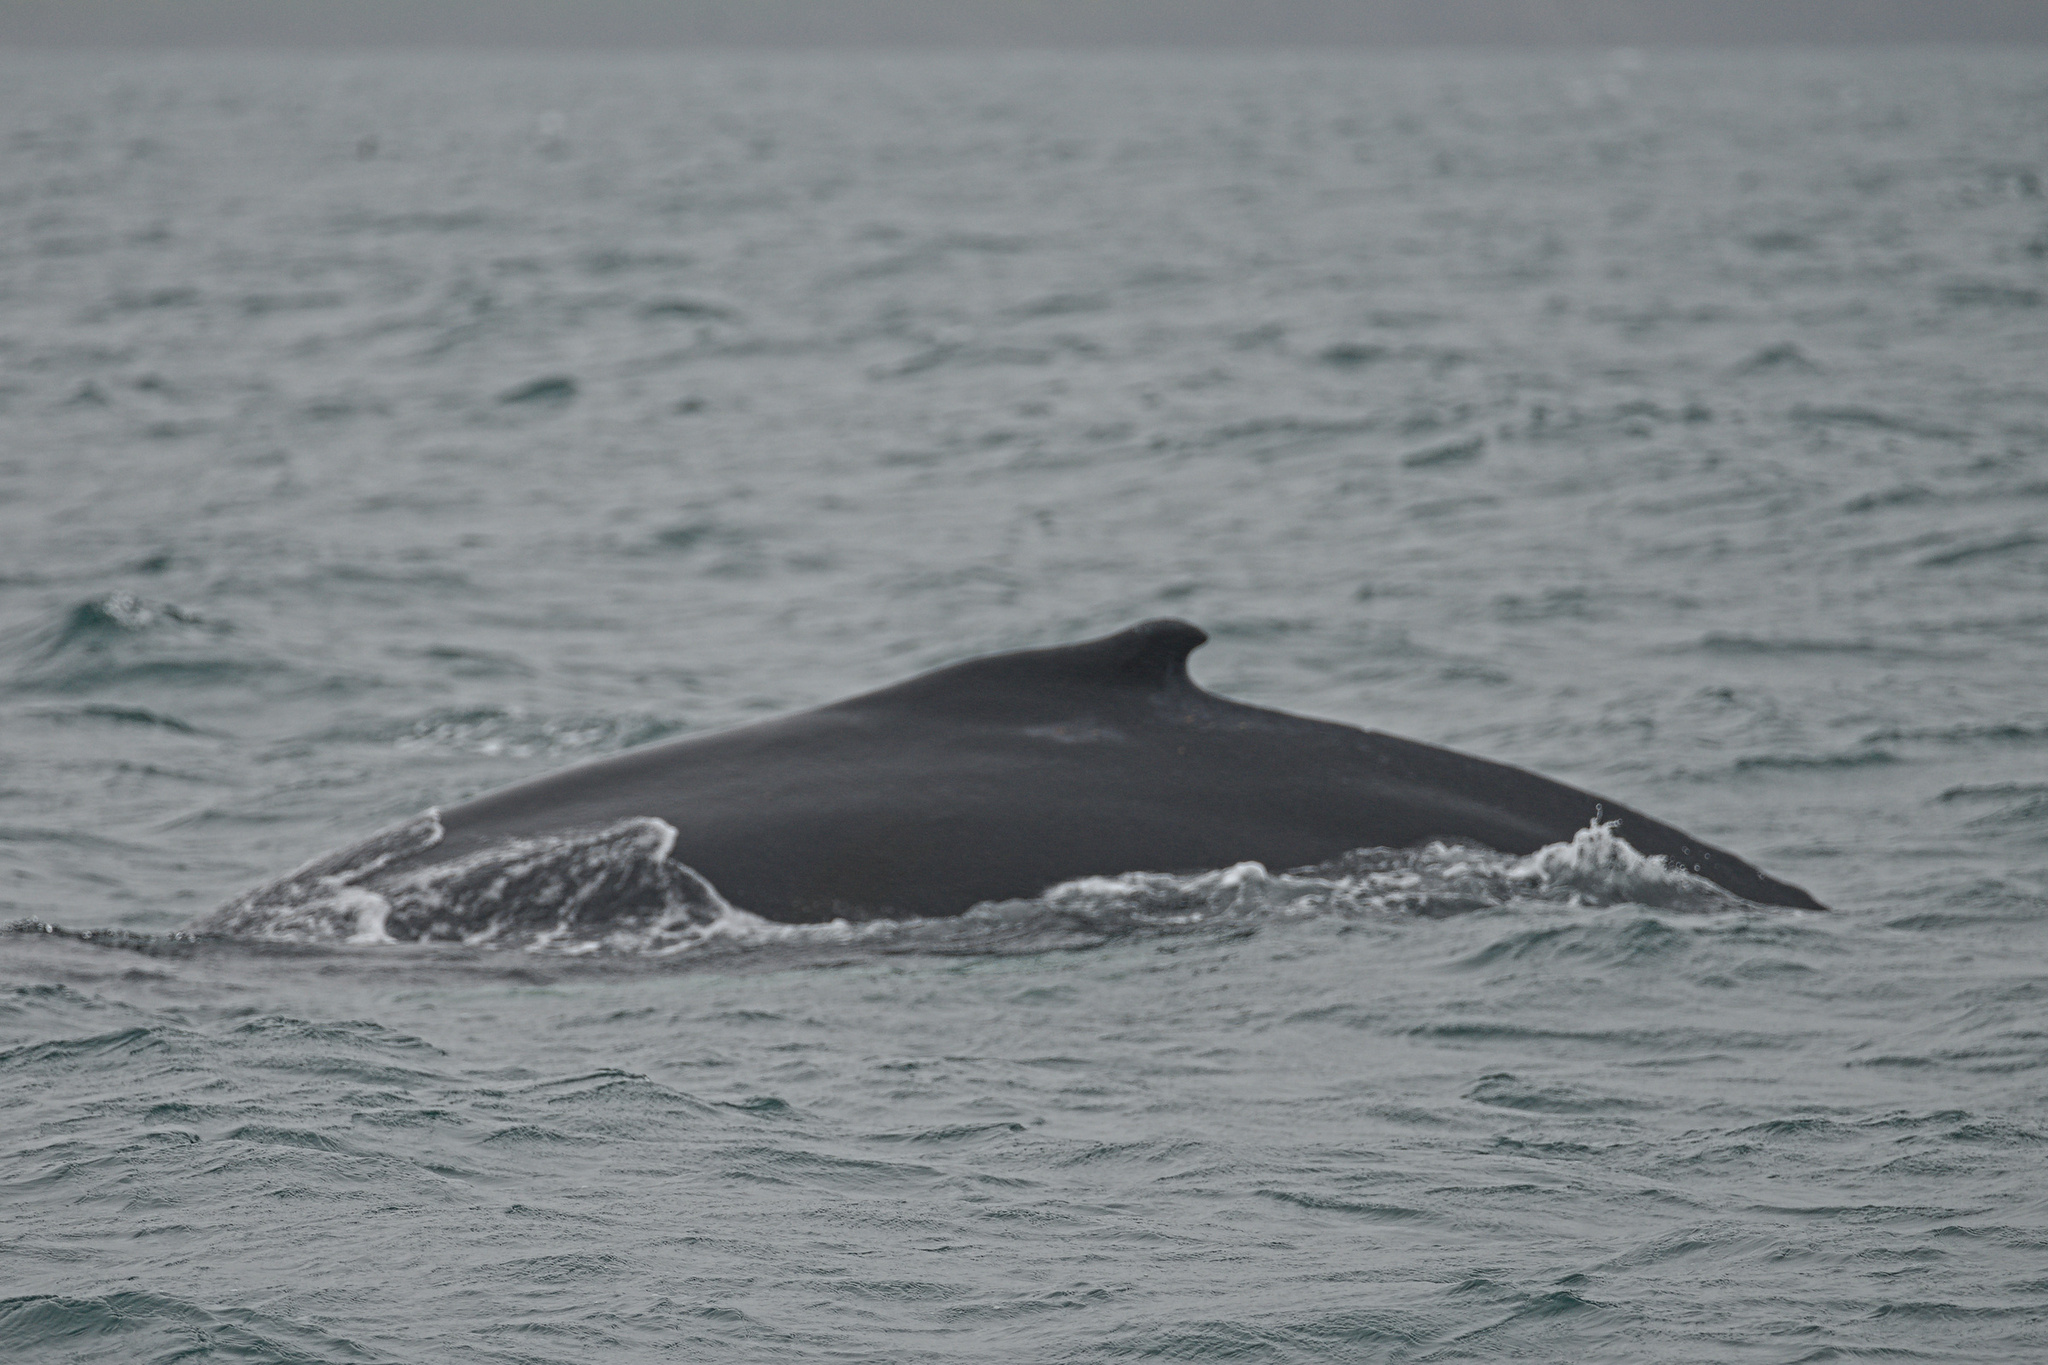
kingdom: Animalia
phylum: Chordata
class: Mammalia
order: Cetacea
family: Balaenopteridae
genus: Megaptera
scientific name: Megaptera novaeangliae
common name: Humpback whale
